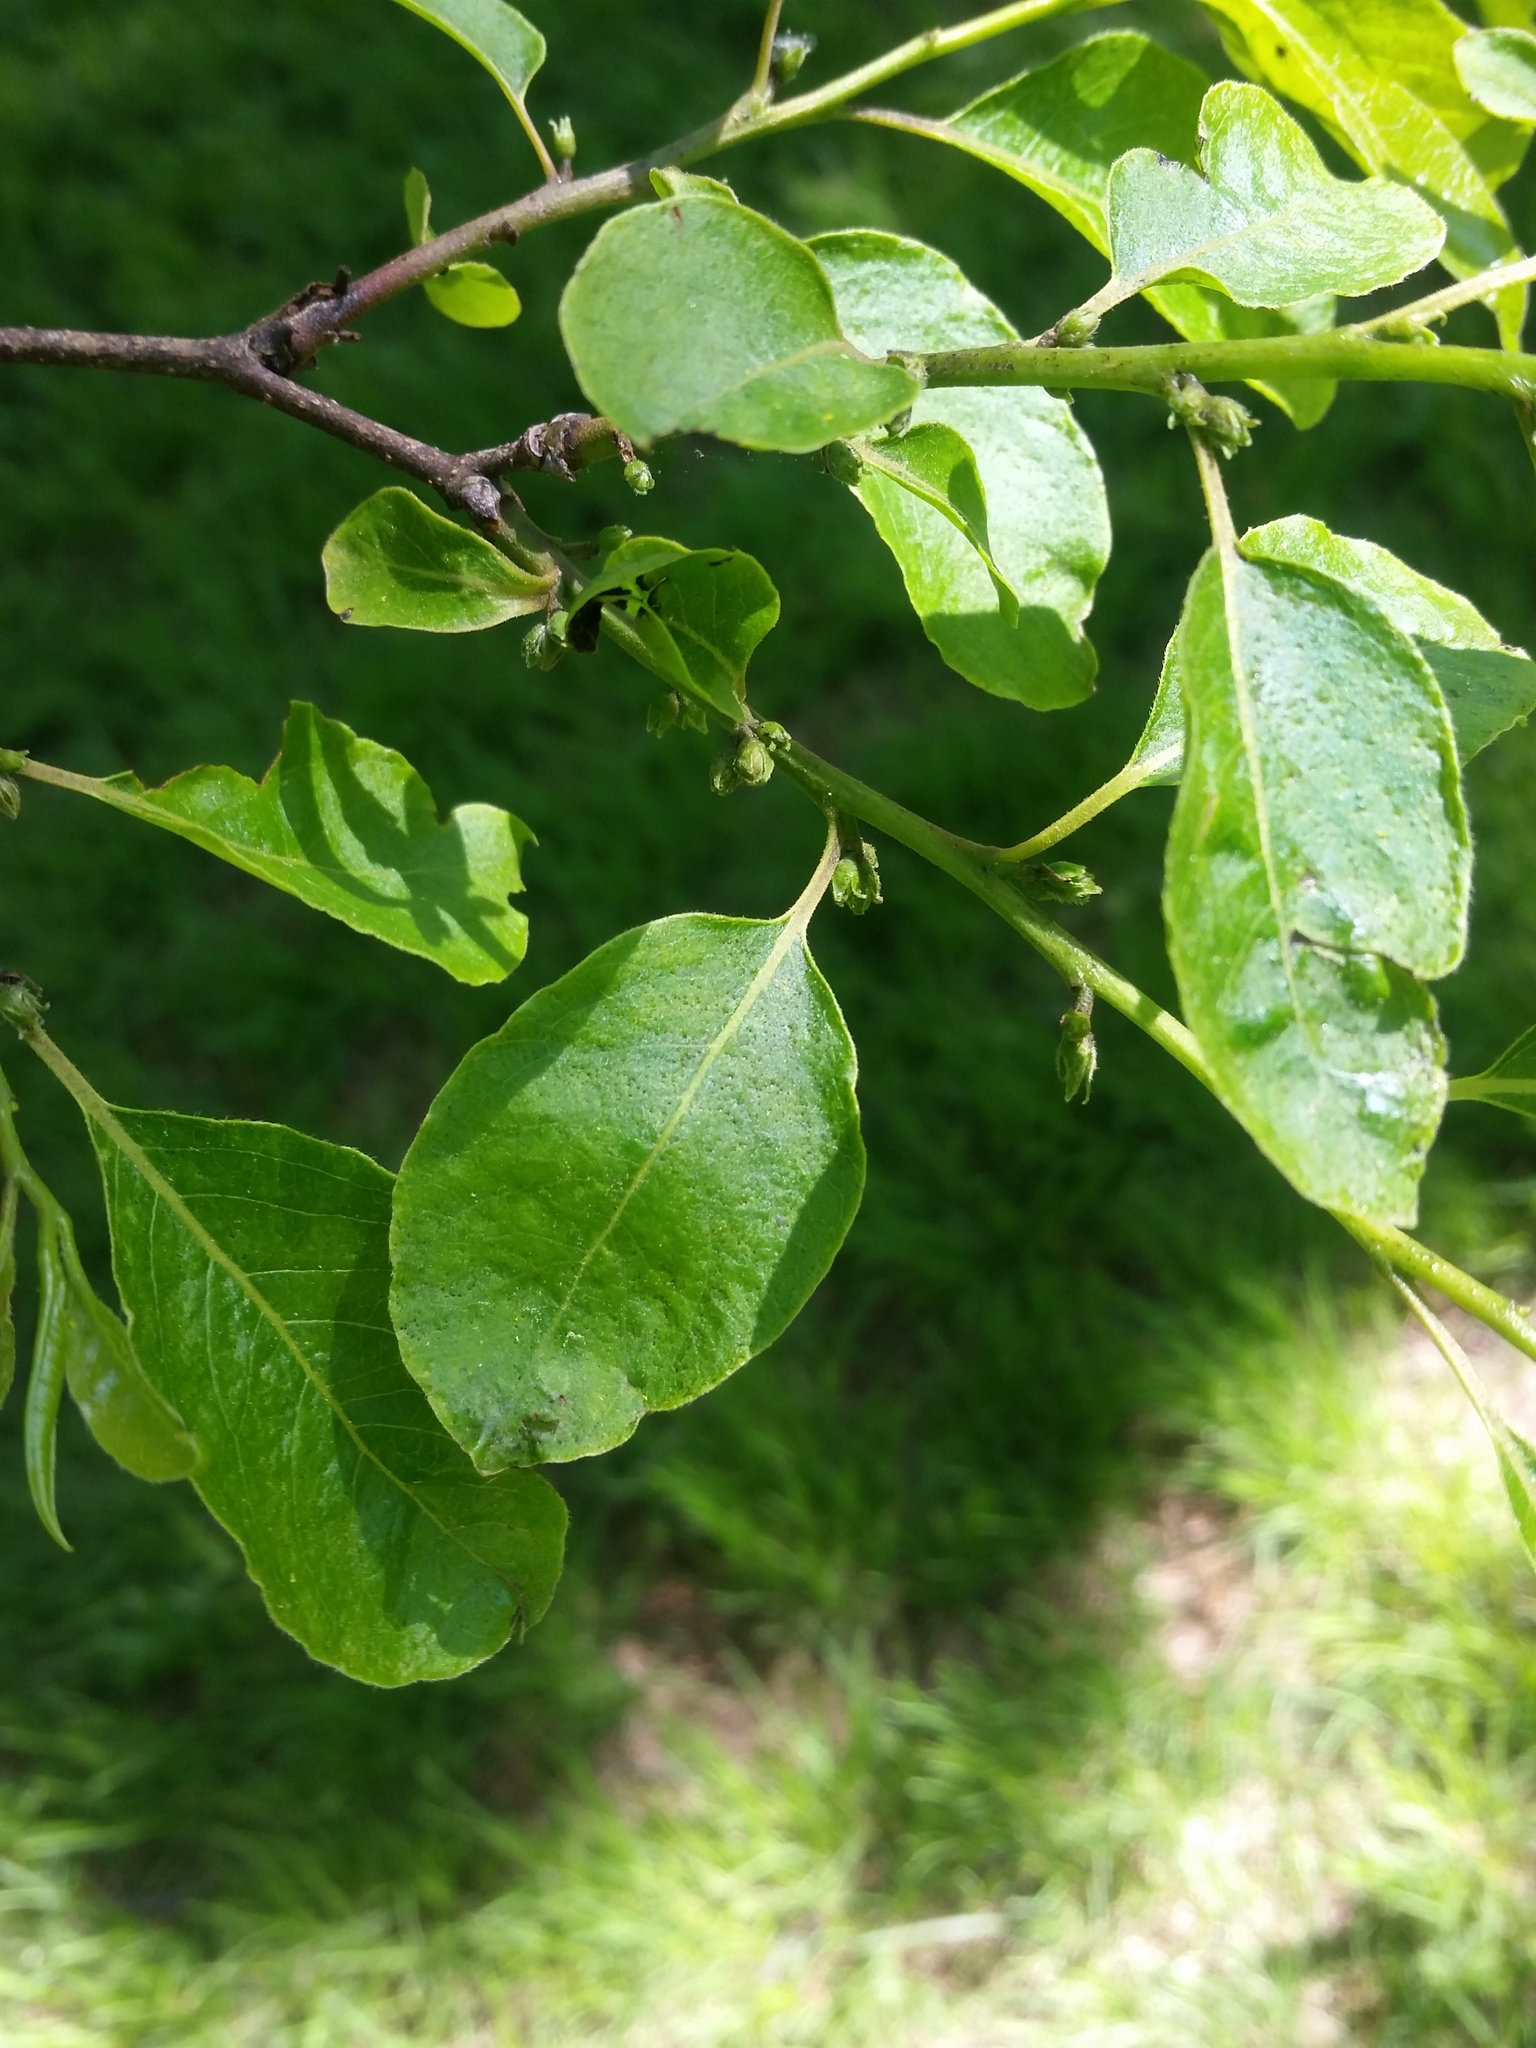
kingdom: Plantae
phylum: Tracheophyta
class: Magnoliopsida
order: Ericales
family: Ebenaceae
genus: Diospyros
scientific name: Diospyros virginiana
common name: Persimmon
